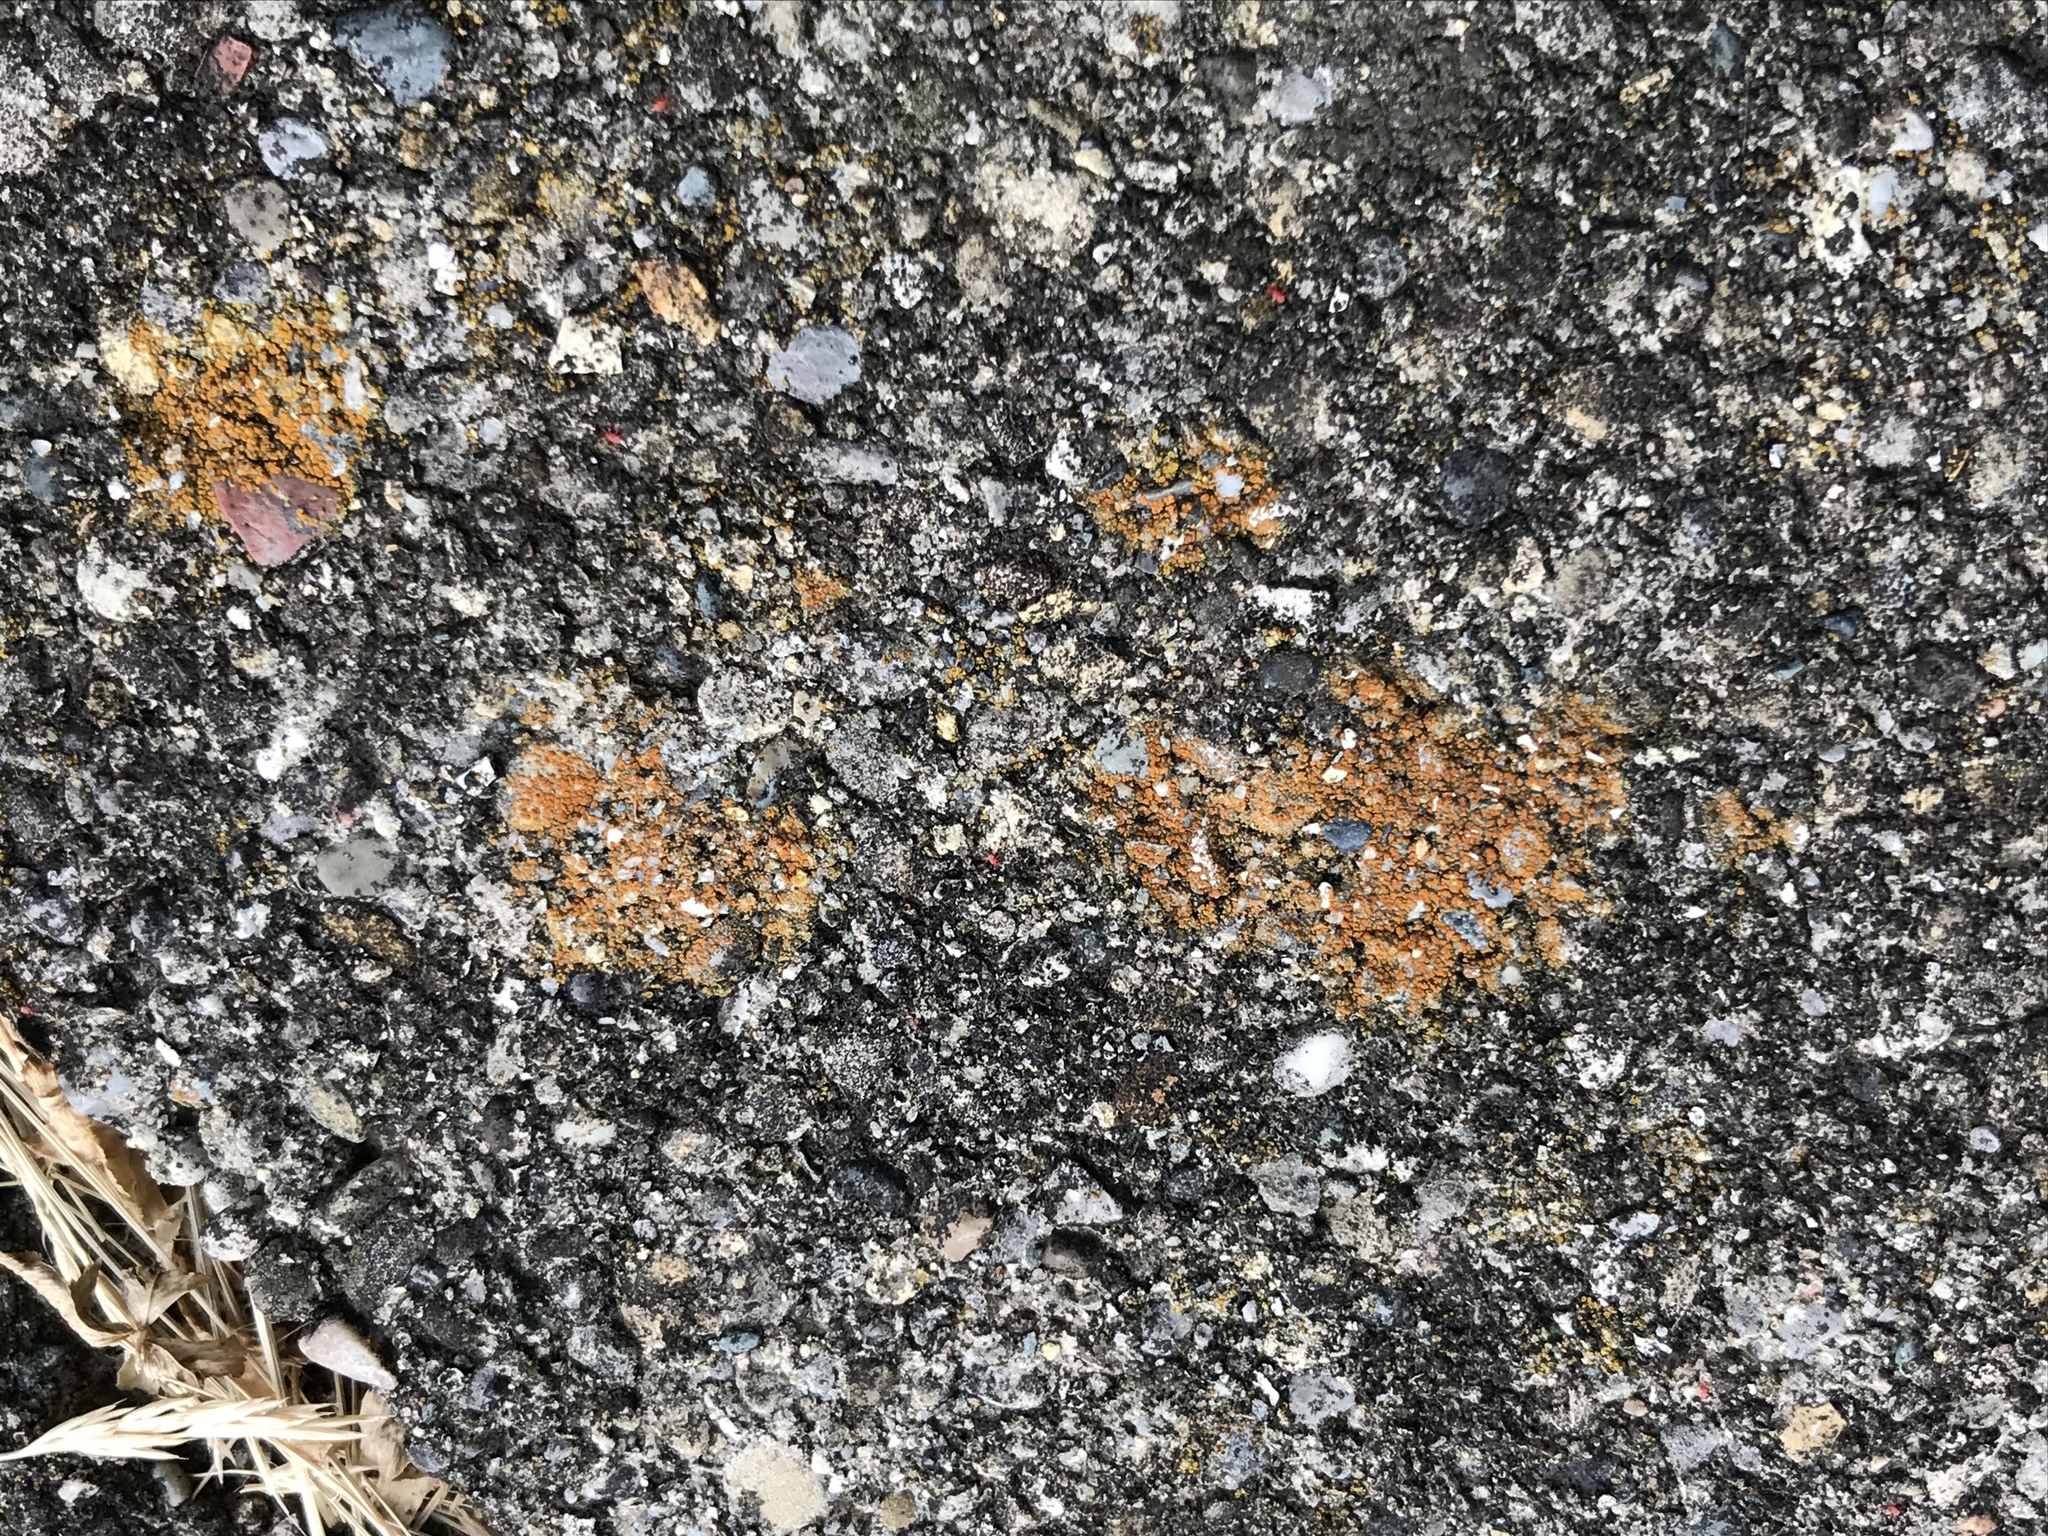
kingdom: Fungi
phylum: Ascomycota
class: Lecanoromycetes
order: Teloschistales
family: Teloschistaceae
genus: Xanthocarpia
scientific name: Xanthocarpia feracissima
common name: Sidewalk firedot
